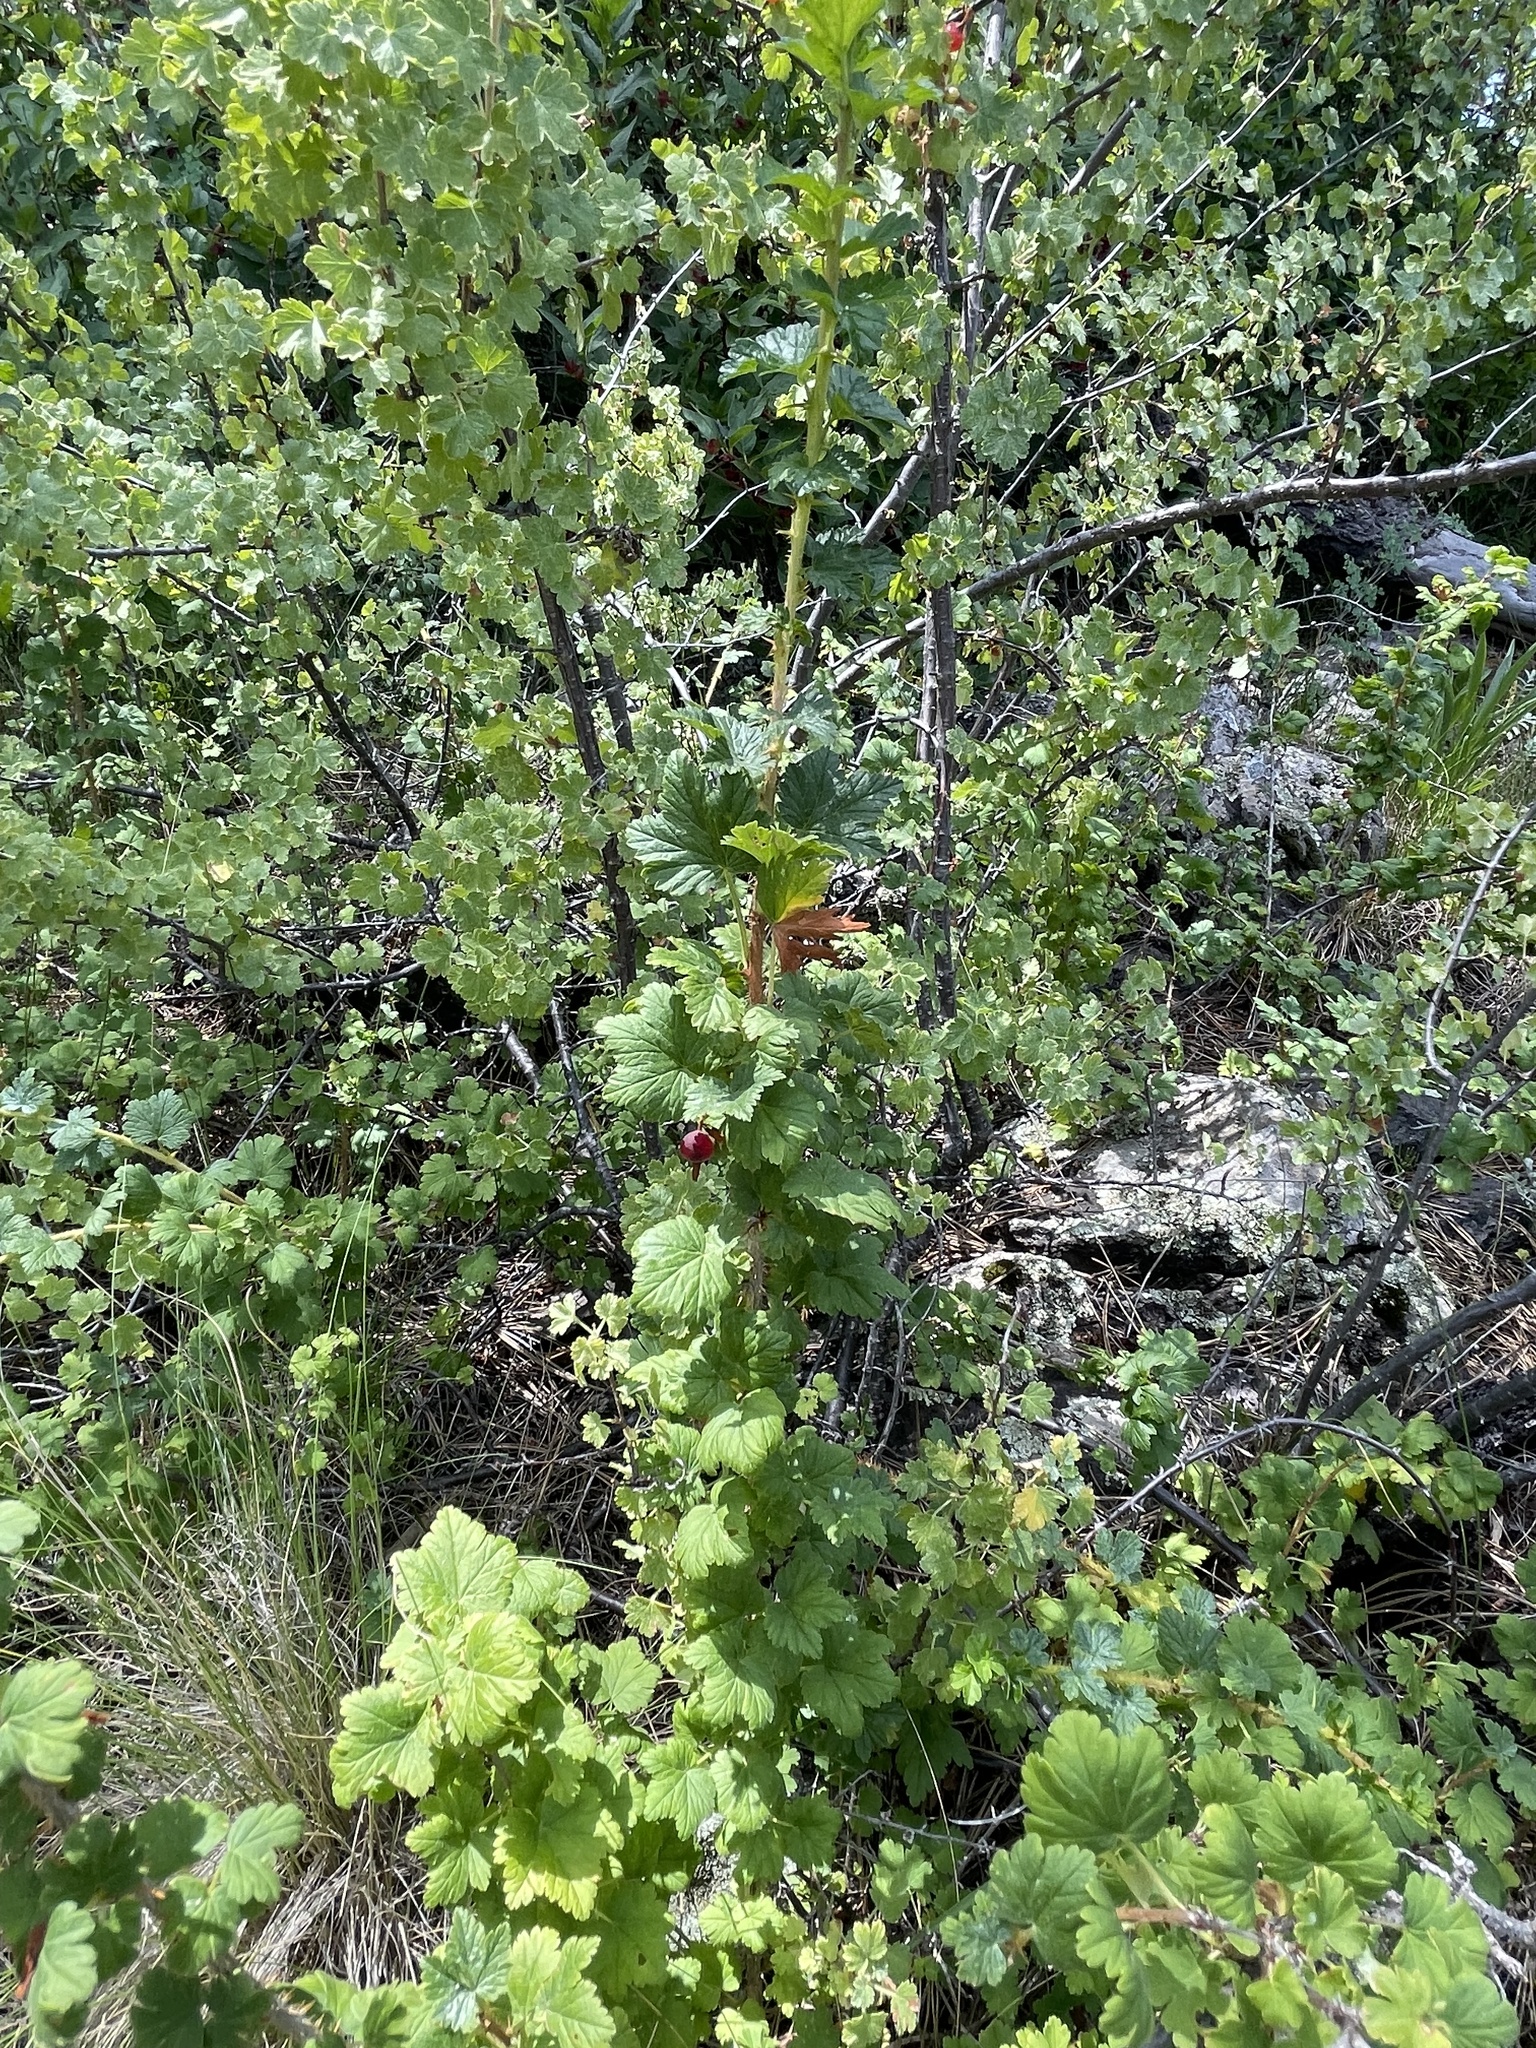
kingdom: Plantae
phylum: Tracheophyta
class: Magnoliopsida
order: Saxifragales
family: Grossulariaceae
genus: Ribes
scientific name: Ribes inerme
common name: White-stem gooseberry
